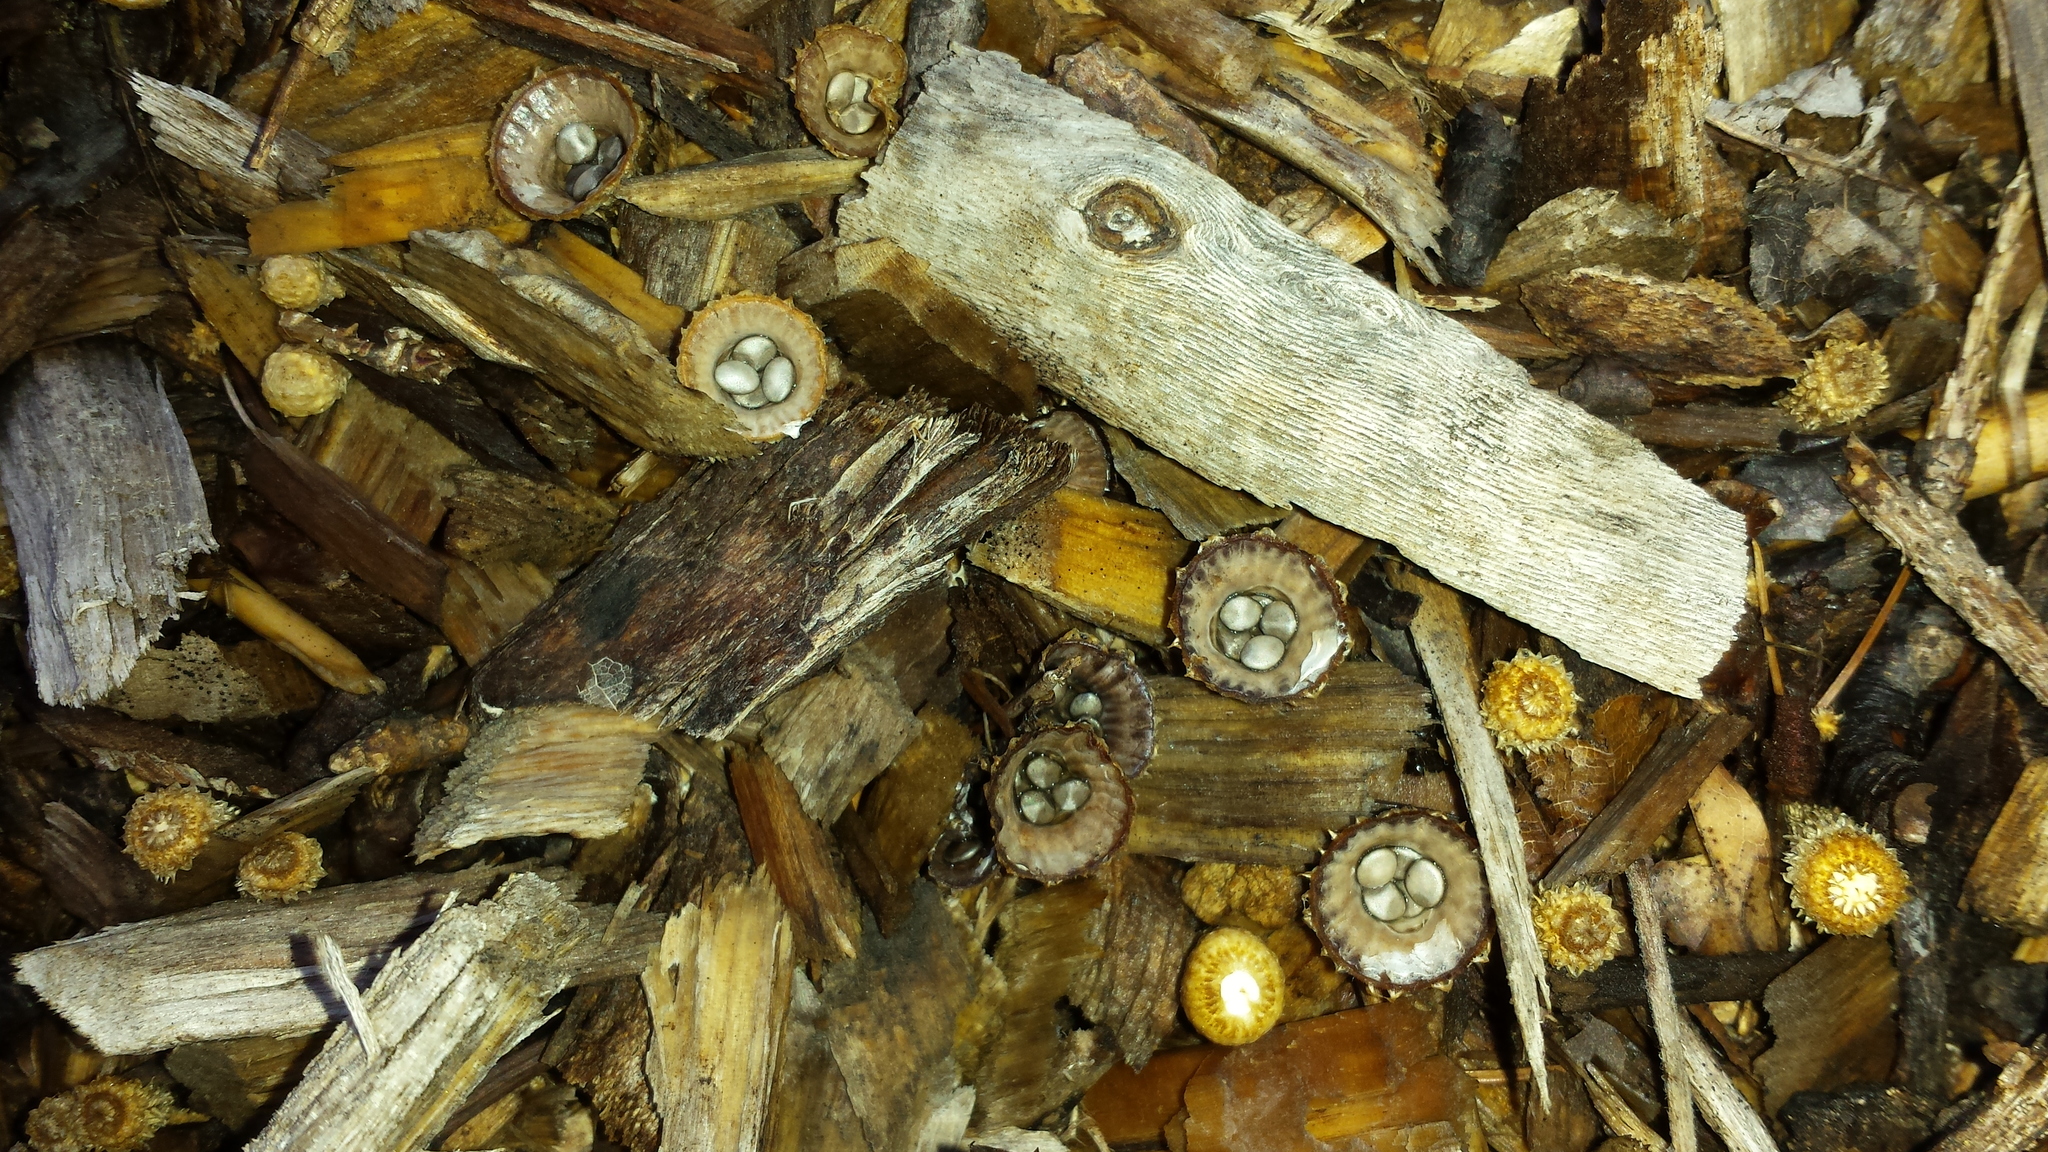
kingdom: Fungi
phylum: Basidiomycota
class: Agaricomycetes
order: Agaricales
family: Agaricaceae
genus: Cyathus
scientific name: Cyathus striatus
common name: Fluted bird's nest
